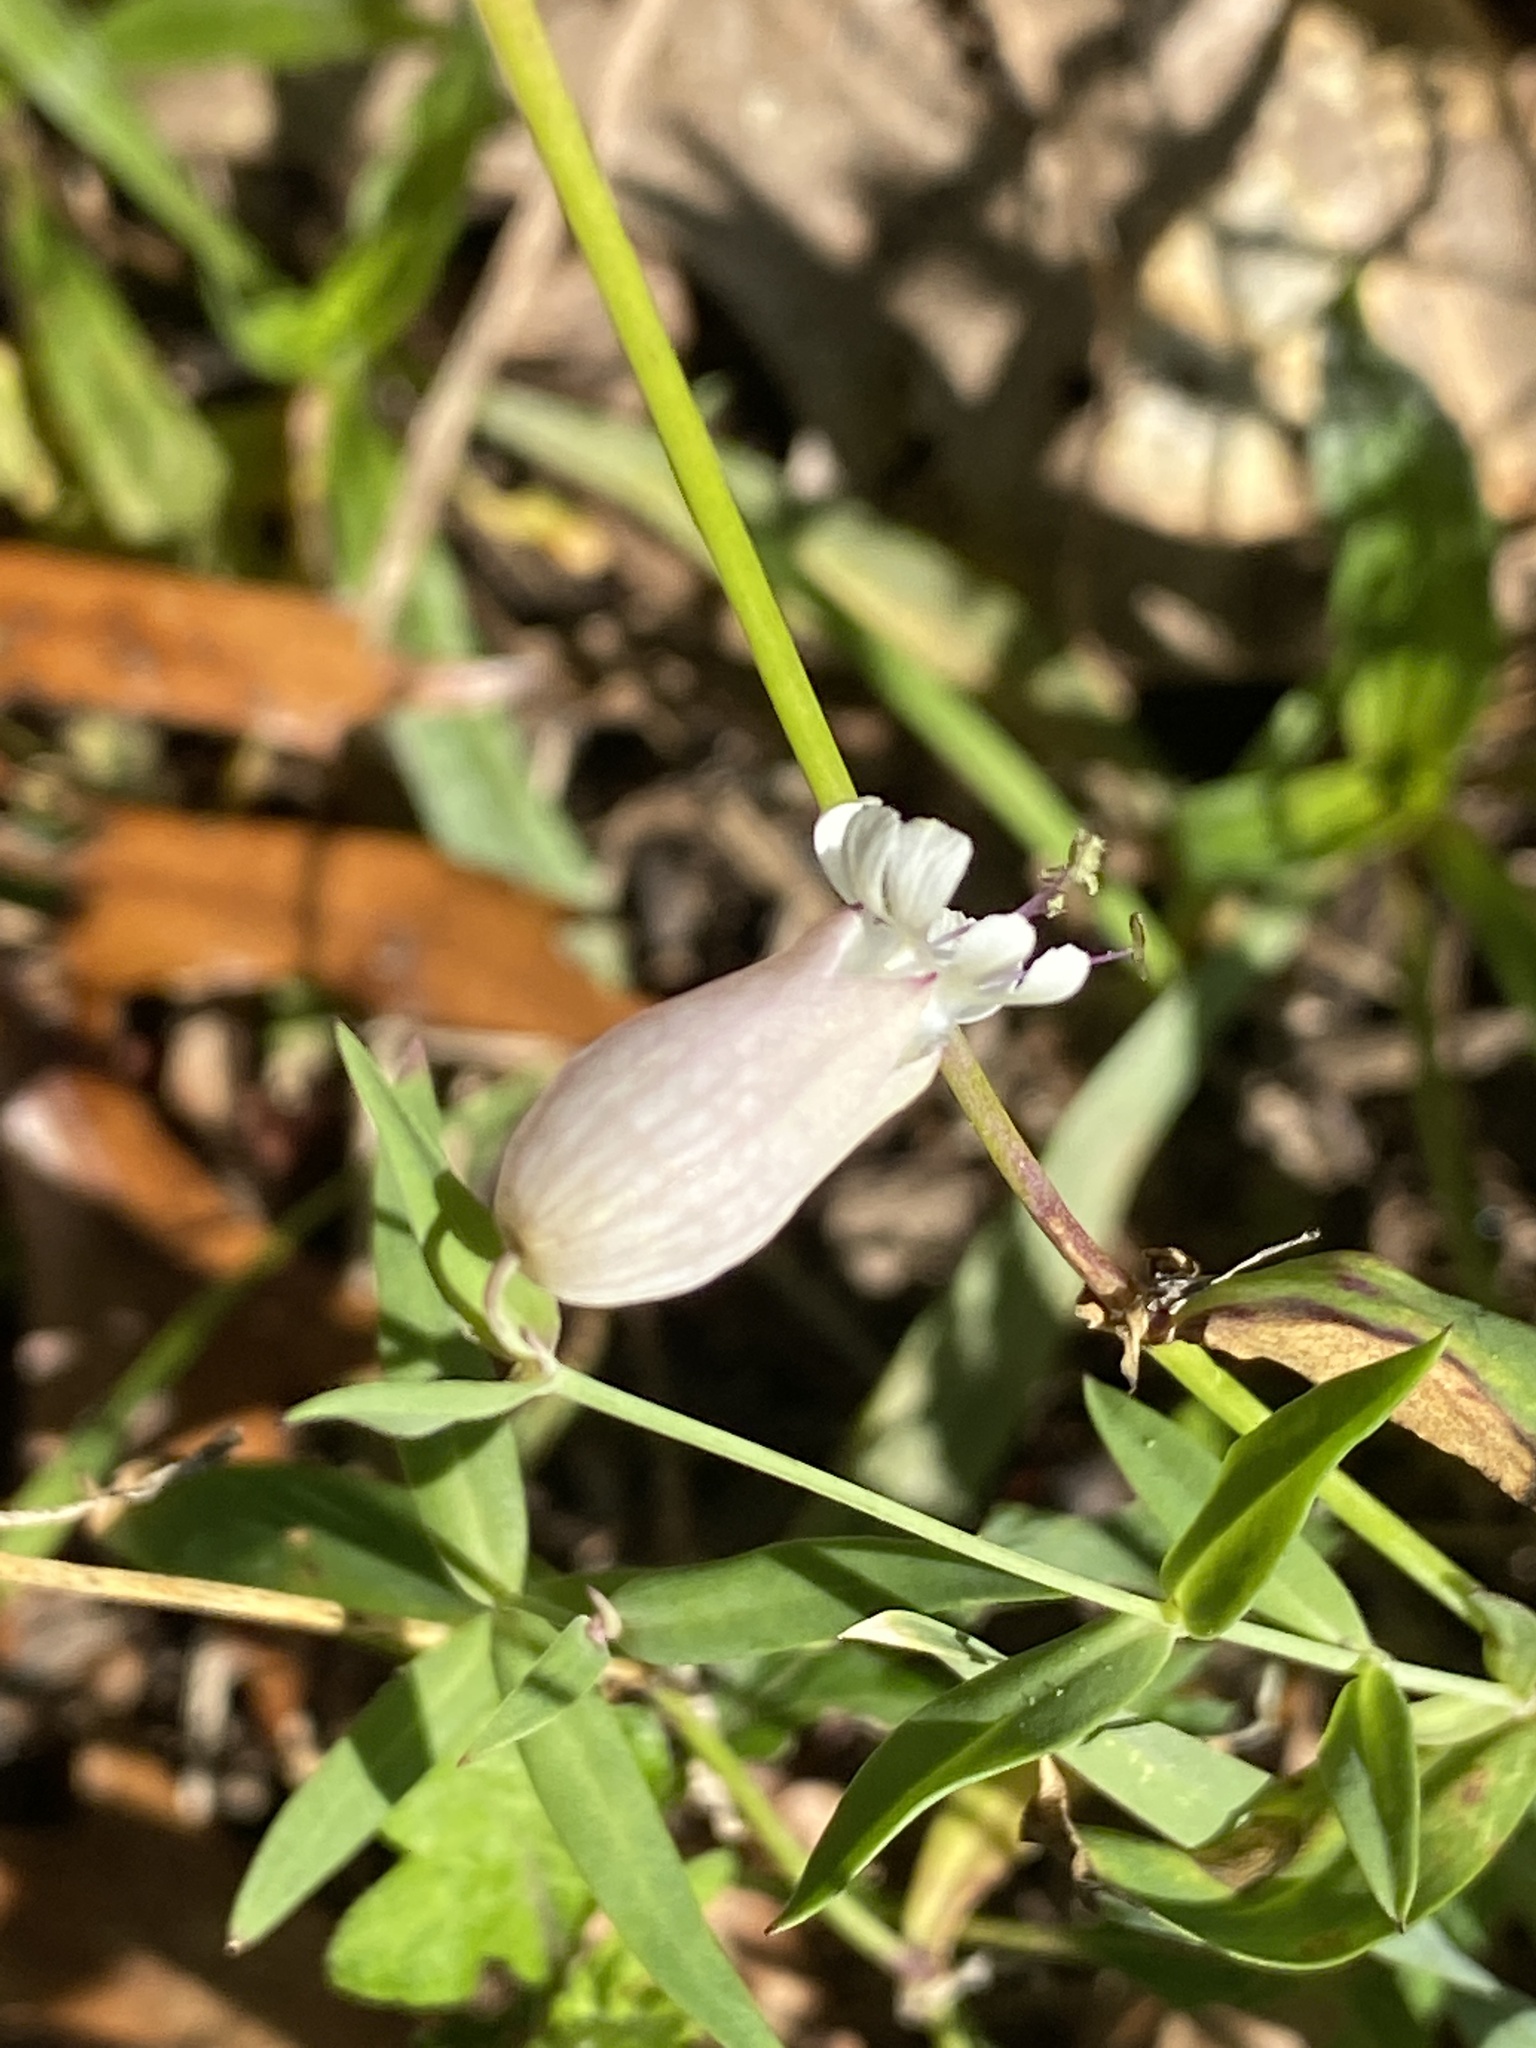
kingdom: Plantae
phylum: Tracheophyta
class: Magnoliopsida
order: Caryophyllales
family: Caryophyllaceae
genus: Silene
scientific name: Silene vulgaris
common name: Bladder campion
